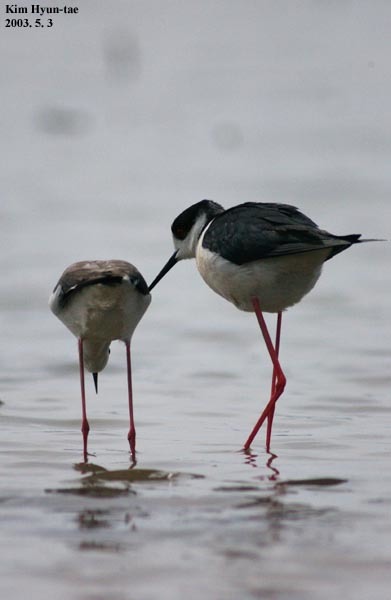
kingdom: Animalia
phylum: Chordata
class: Aves
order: Charadriiformes
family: Recurvirostridae
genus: Himantopus
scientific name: Himantopus himantopus
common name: Black-winged stilt
